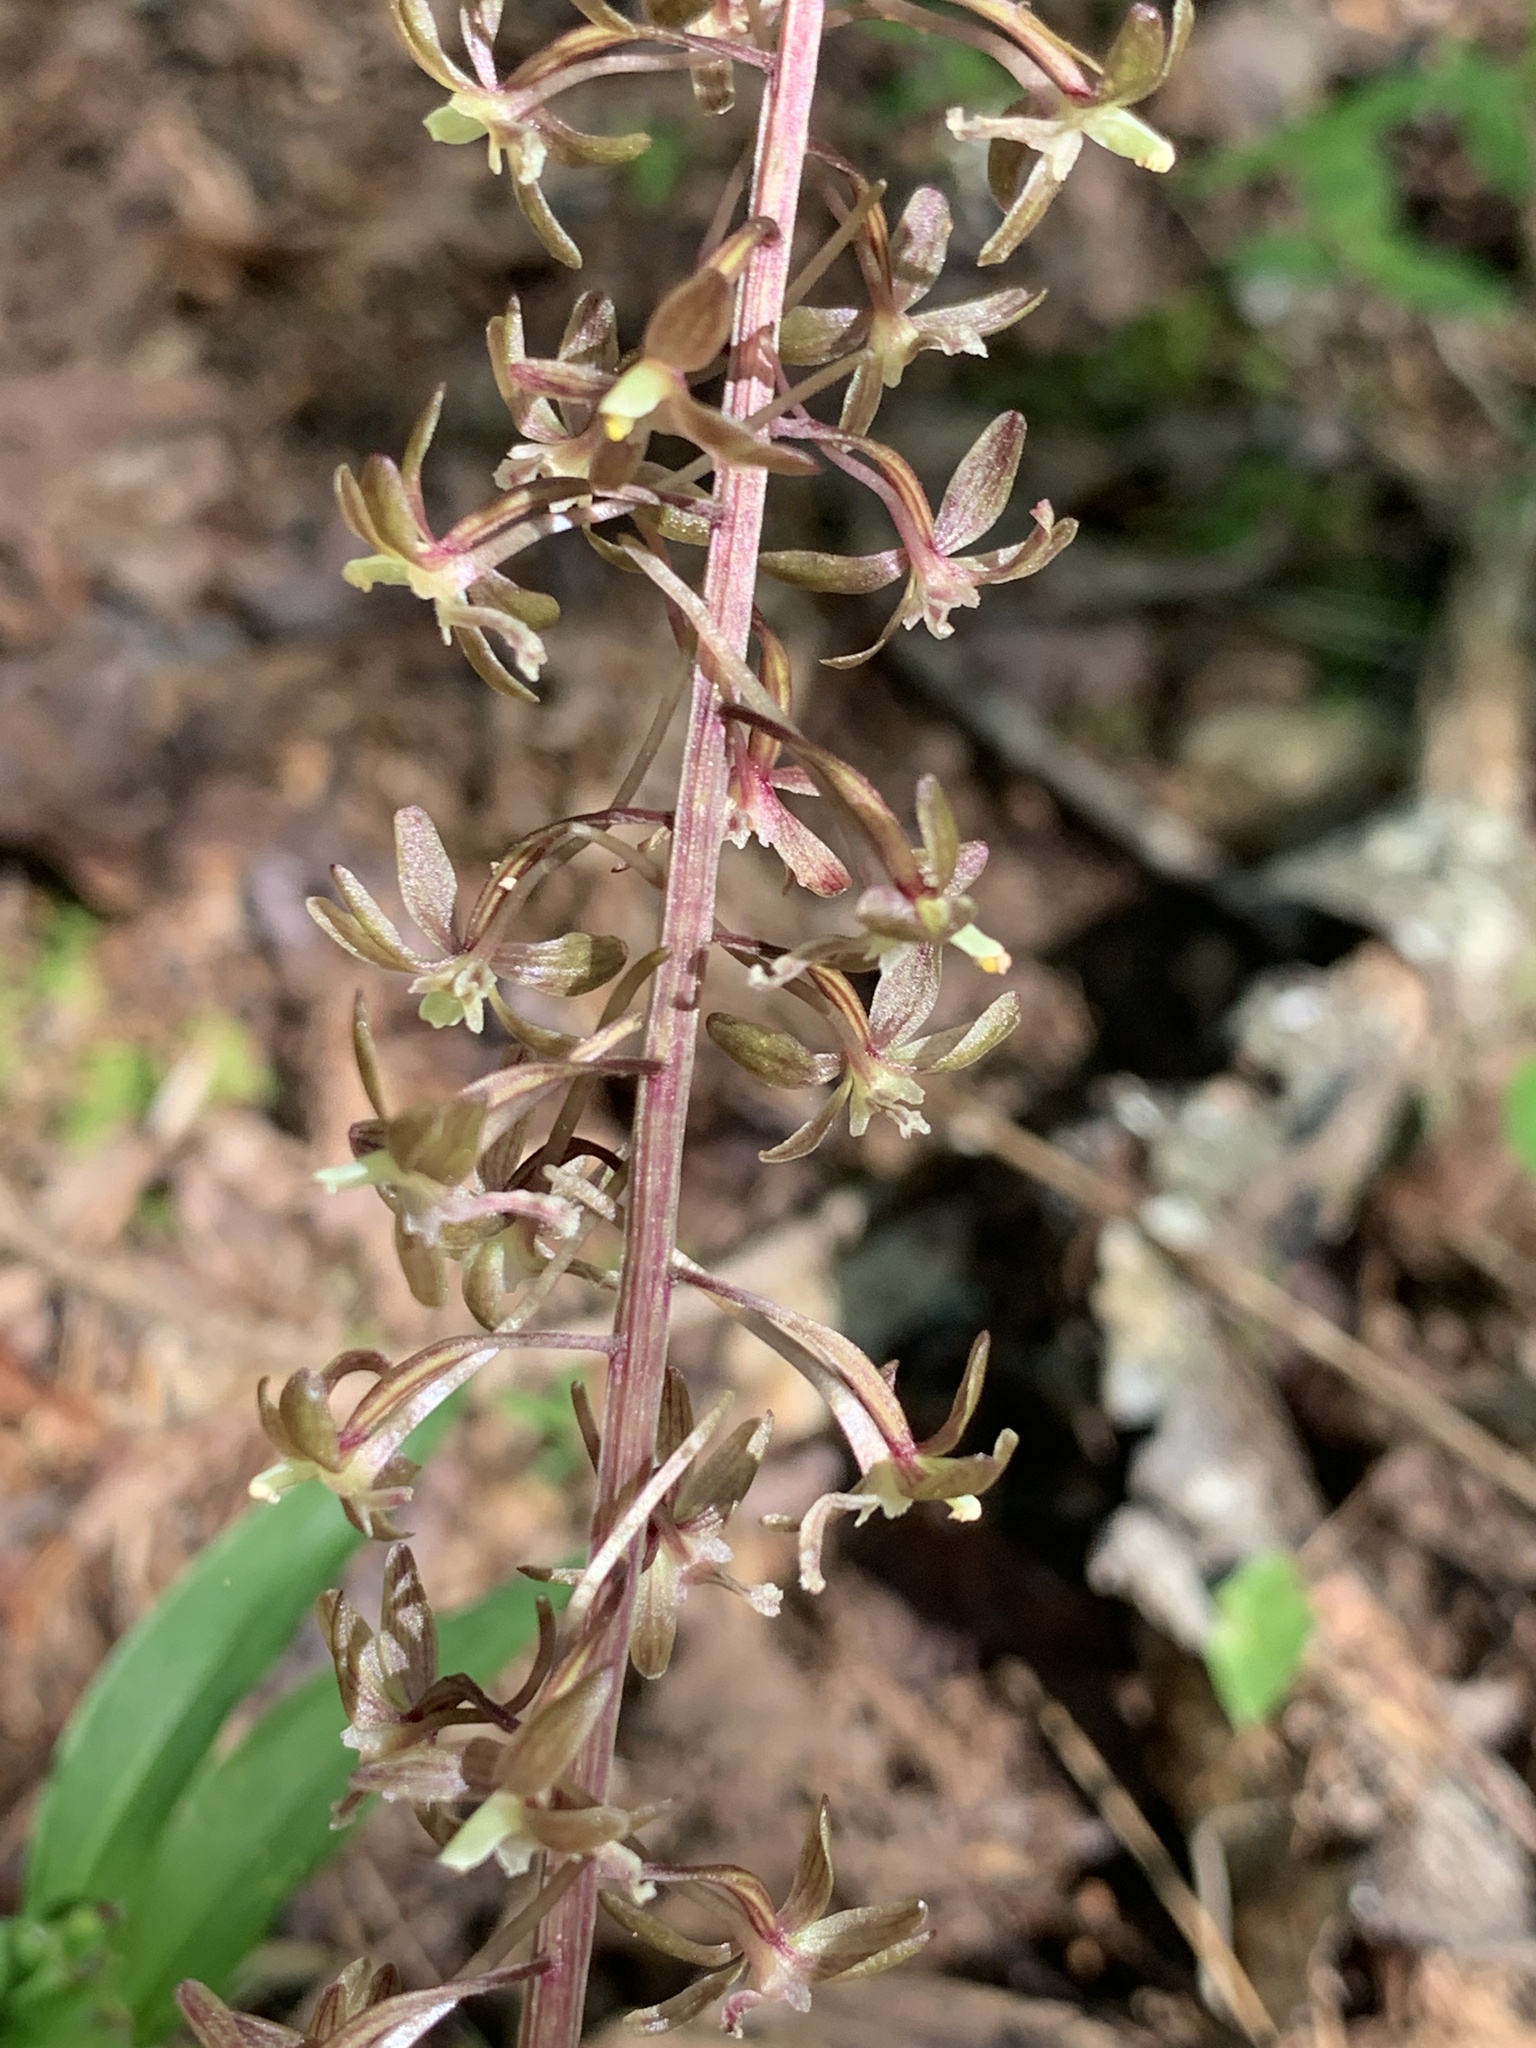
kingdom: Plantae
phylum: Tracheophyta
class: Liliopsida
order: Asparagales
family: Orchidaceae
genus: Tipularia
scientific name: Tipularia discolor
